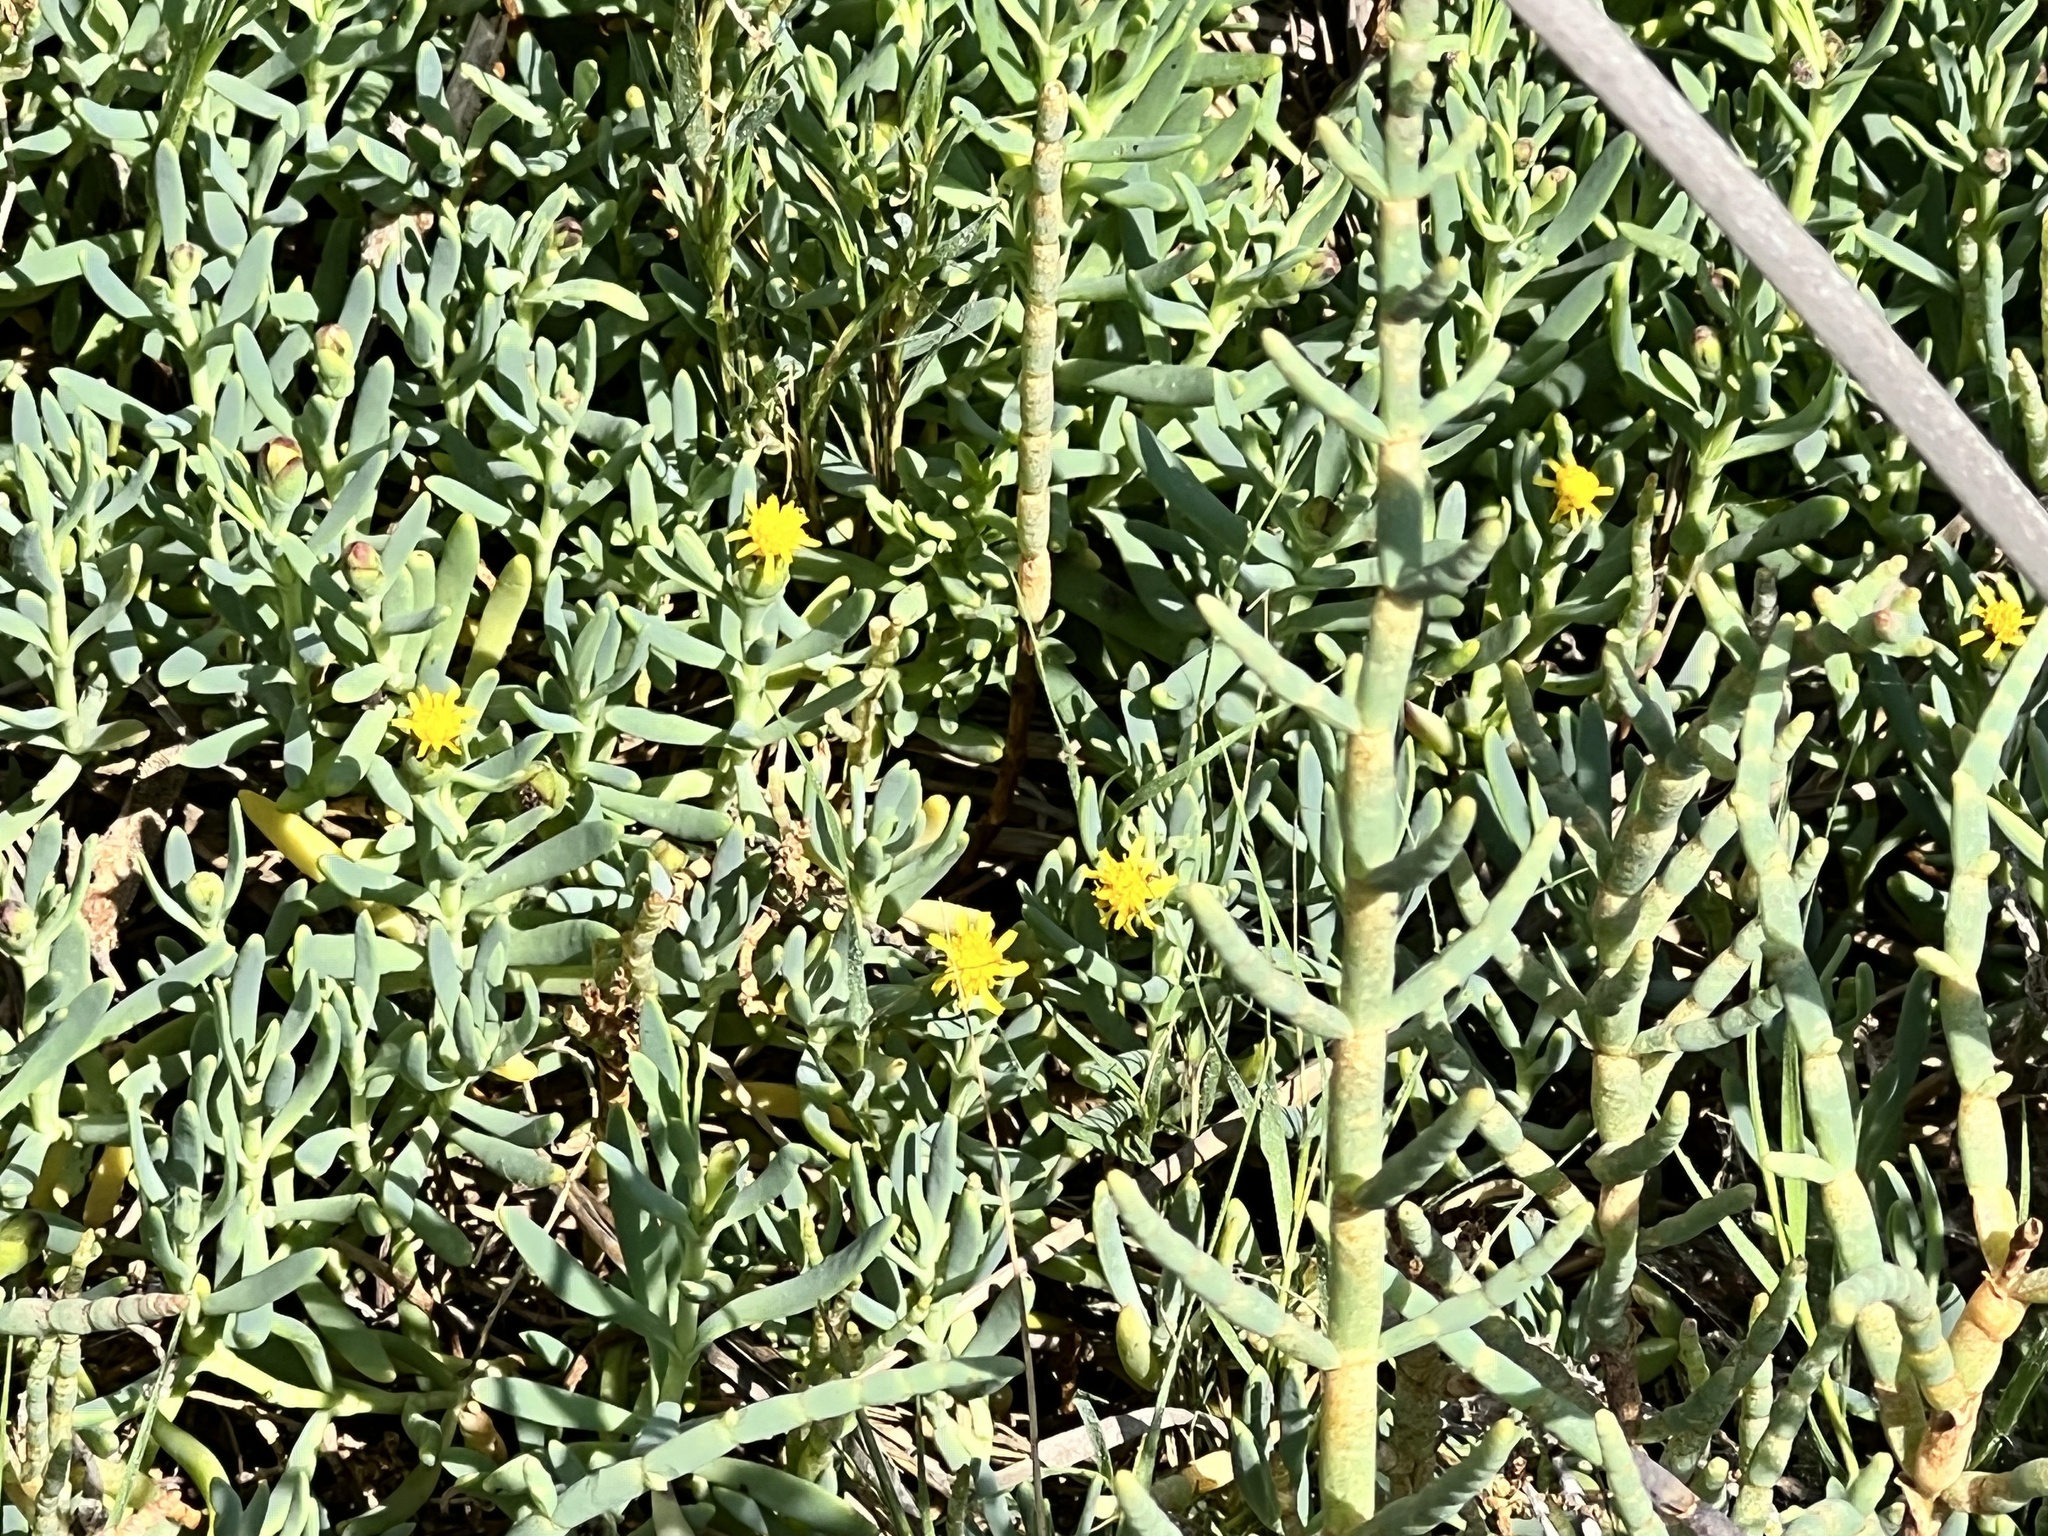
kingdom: Plantae
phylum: Tracheophyta
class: Magnoliopsida
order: Asterales
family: Asteraceae
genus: Jaumea
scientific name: Jaumea carnosa
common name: Fleshy jaumea
